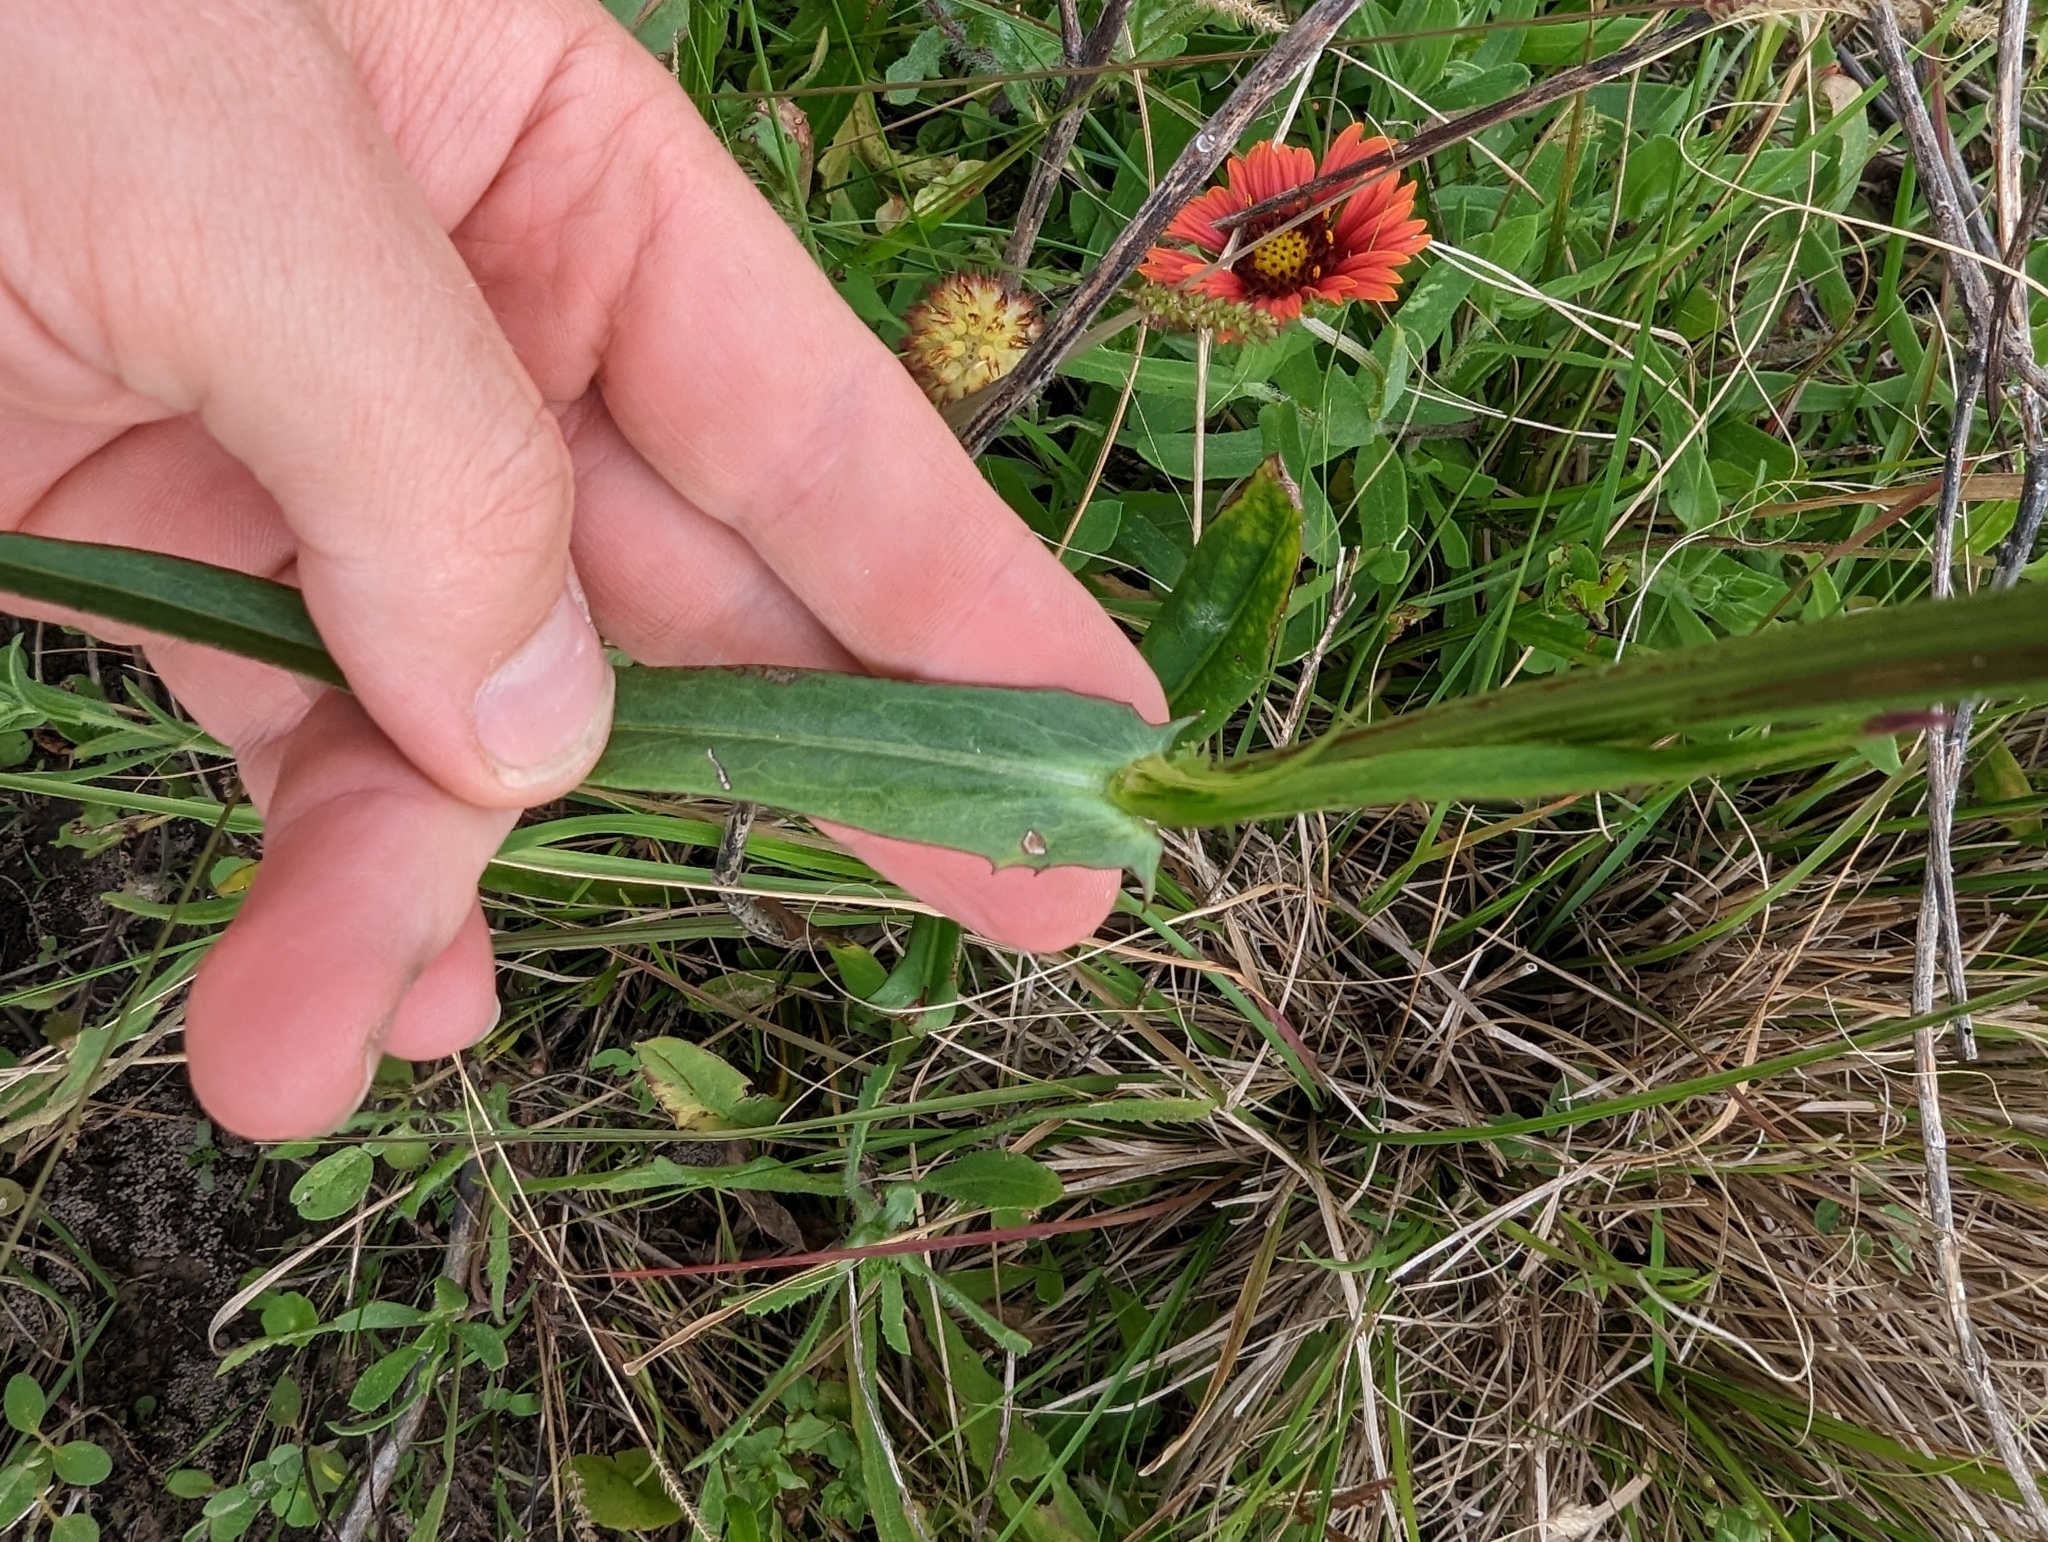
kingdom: Plantae
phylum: Tracheophyta
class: Magnoliopsida
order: Asterales
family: Asteraceae
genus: Pyrrhopappus
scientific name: Pyrrhopappus carolinianus
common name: Carolina desert-chicory
